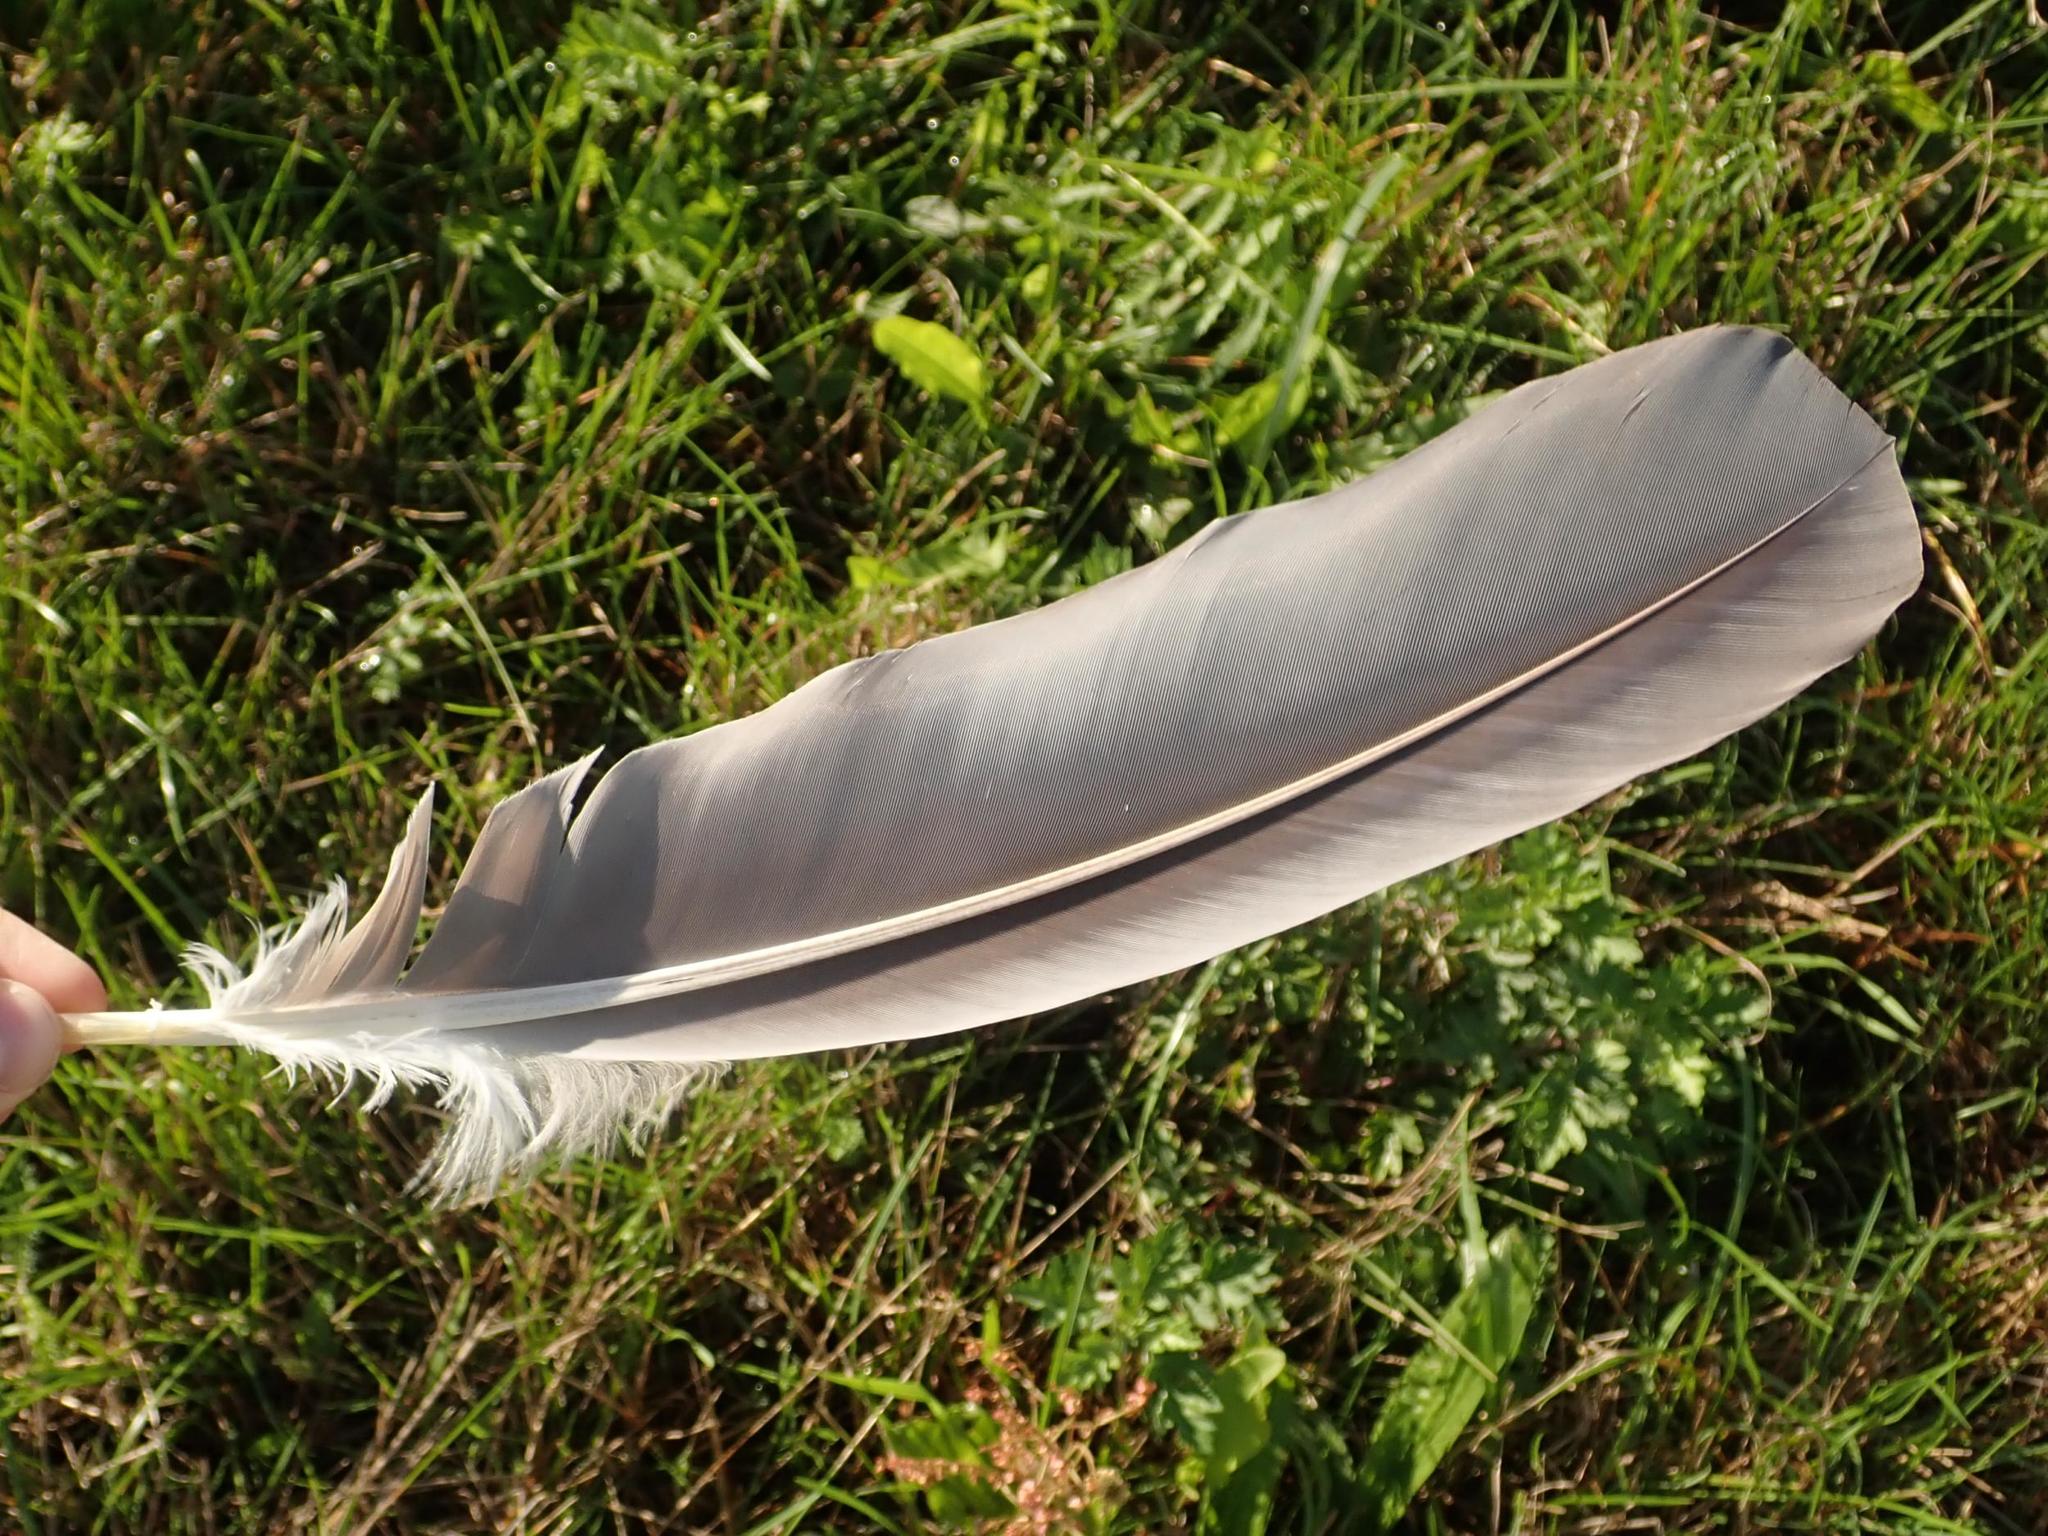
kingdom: Animalia
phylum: Chordata
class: Aves
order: Columbiformes
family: Columbidae
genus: Columba
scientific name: Columba palumbus
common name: Common wood pigeon
